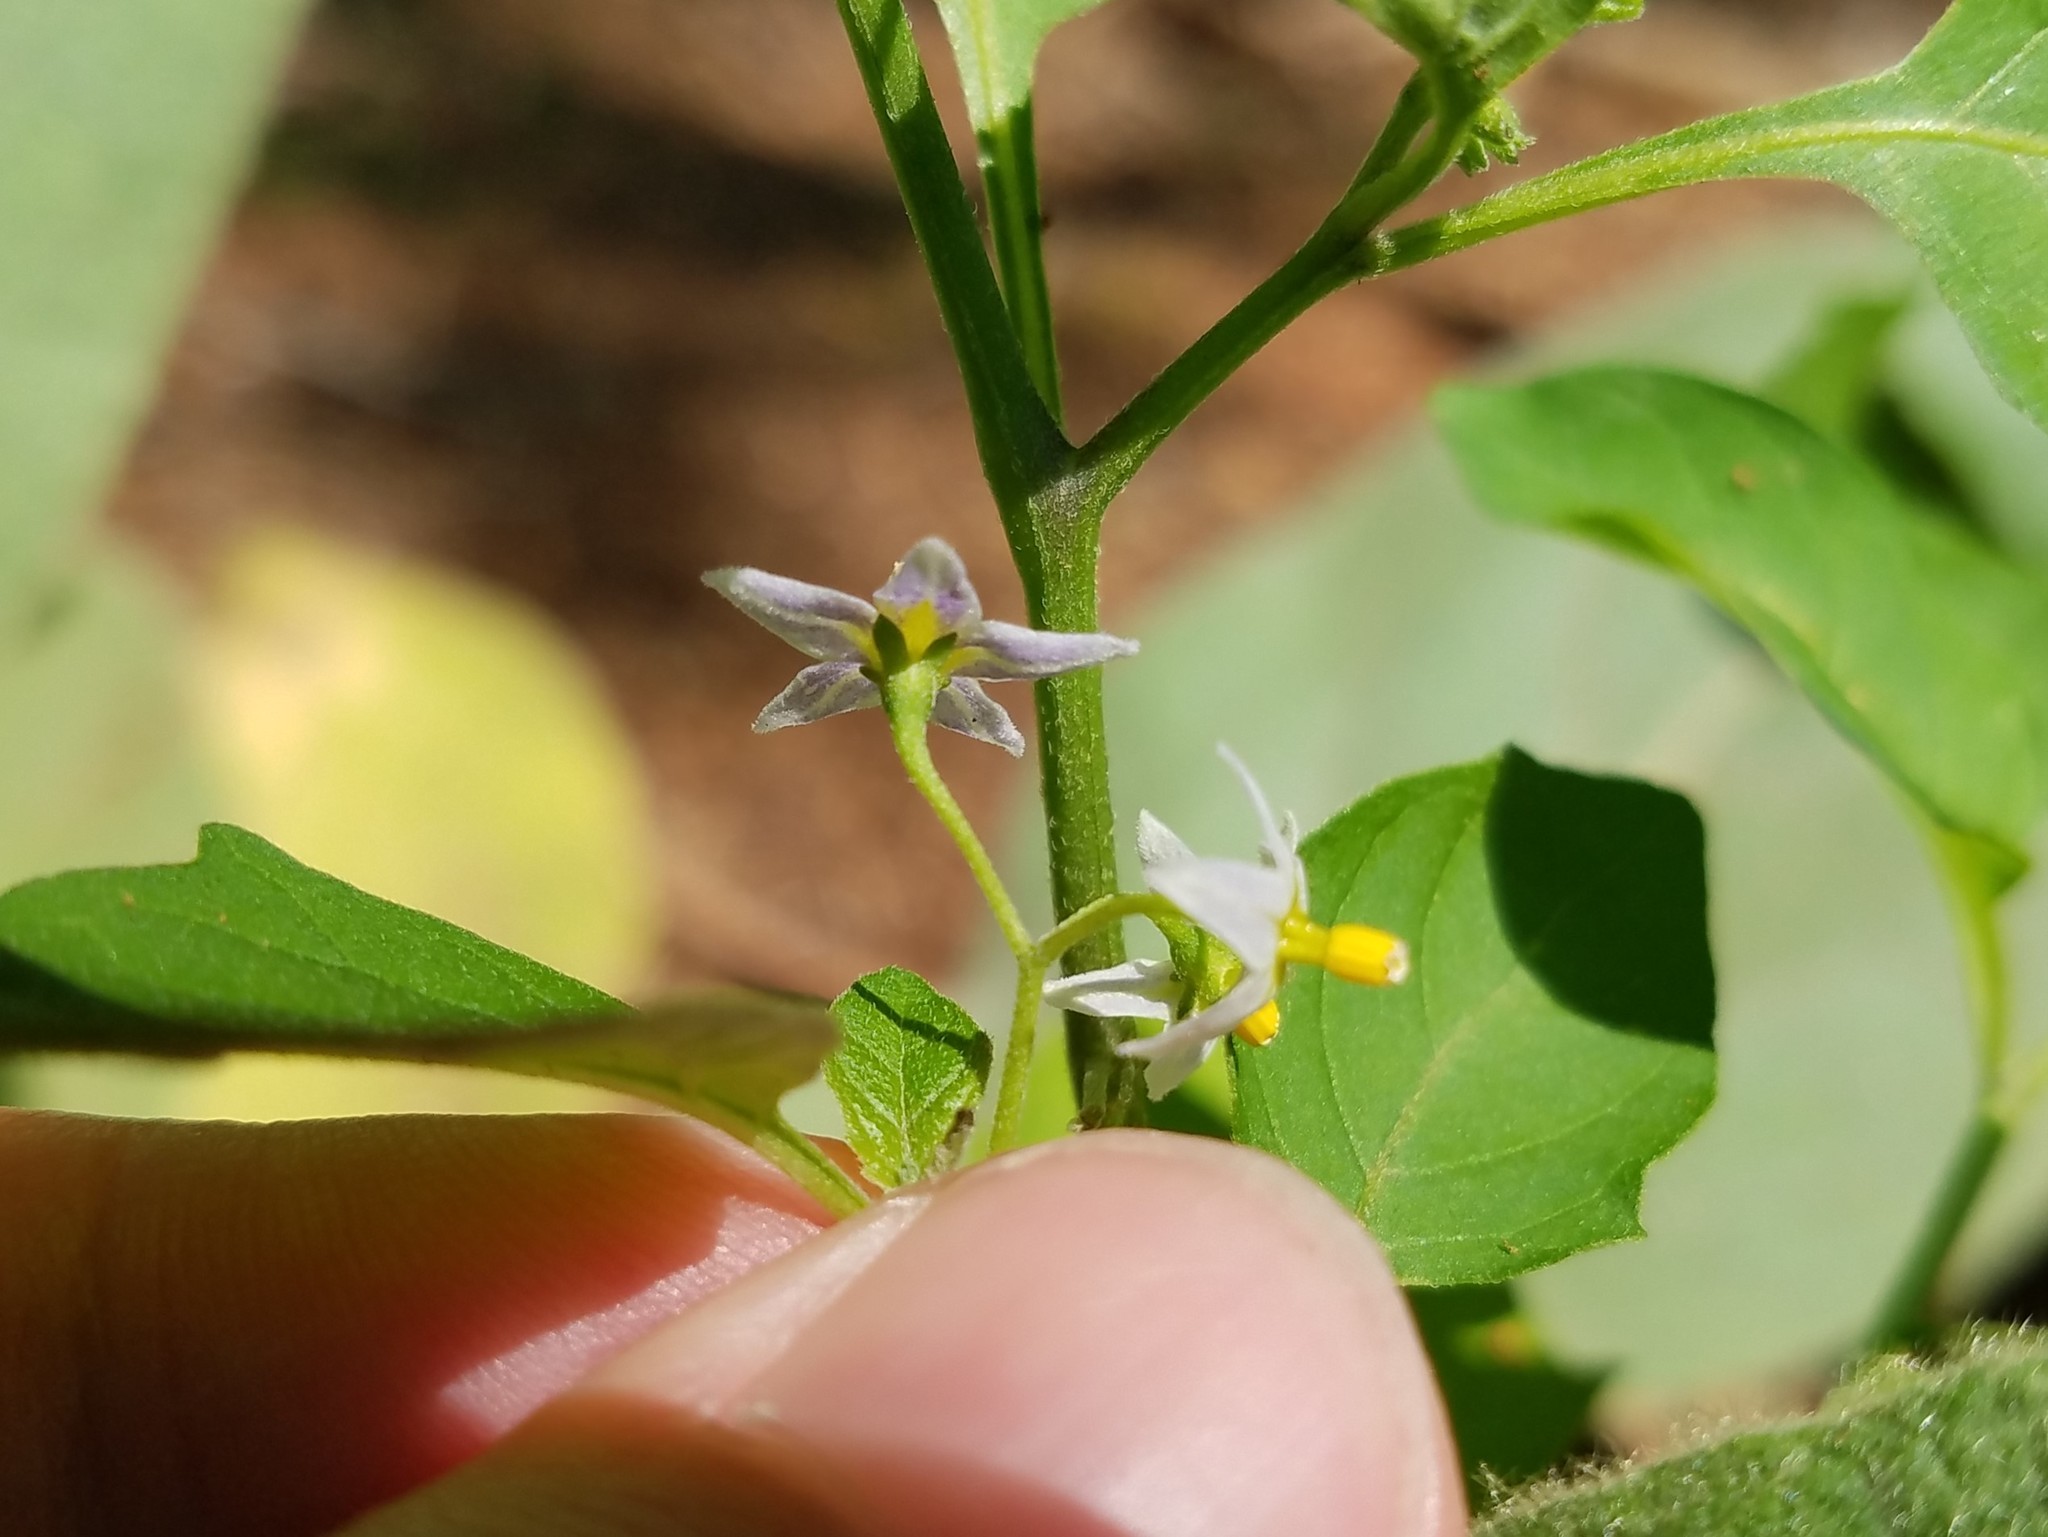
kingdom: Plantae
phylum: Tracheophyta
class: Magnoliopsida
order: Solanales
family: Solanaceae
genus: Solanum
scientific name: Solanum emulans
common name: Eastern black nightshade
